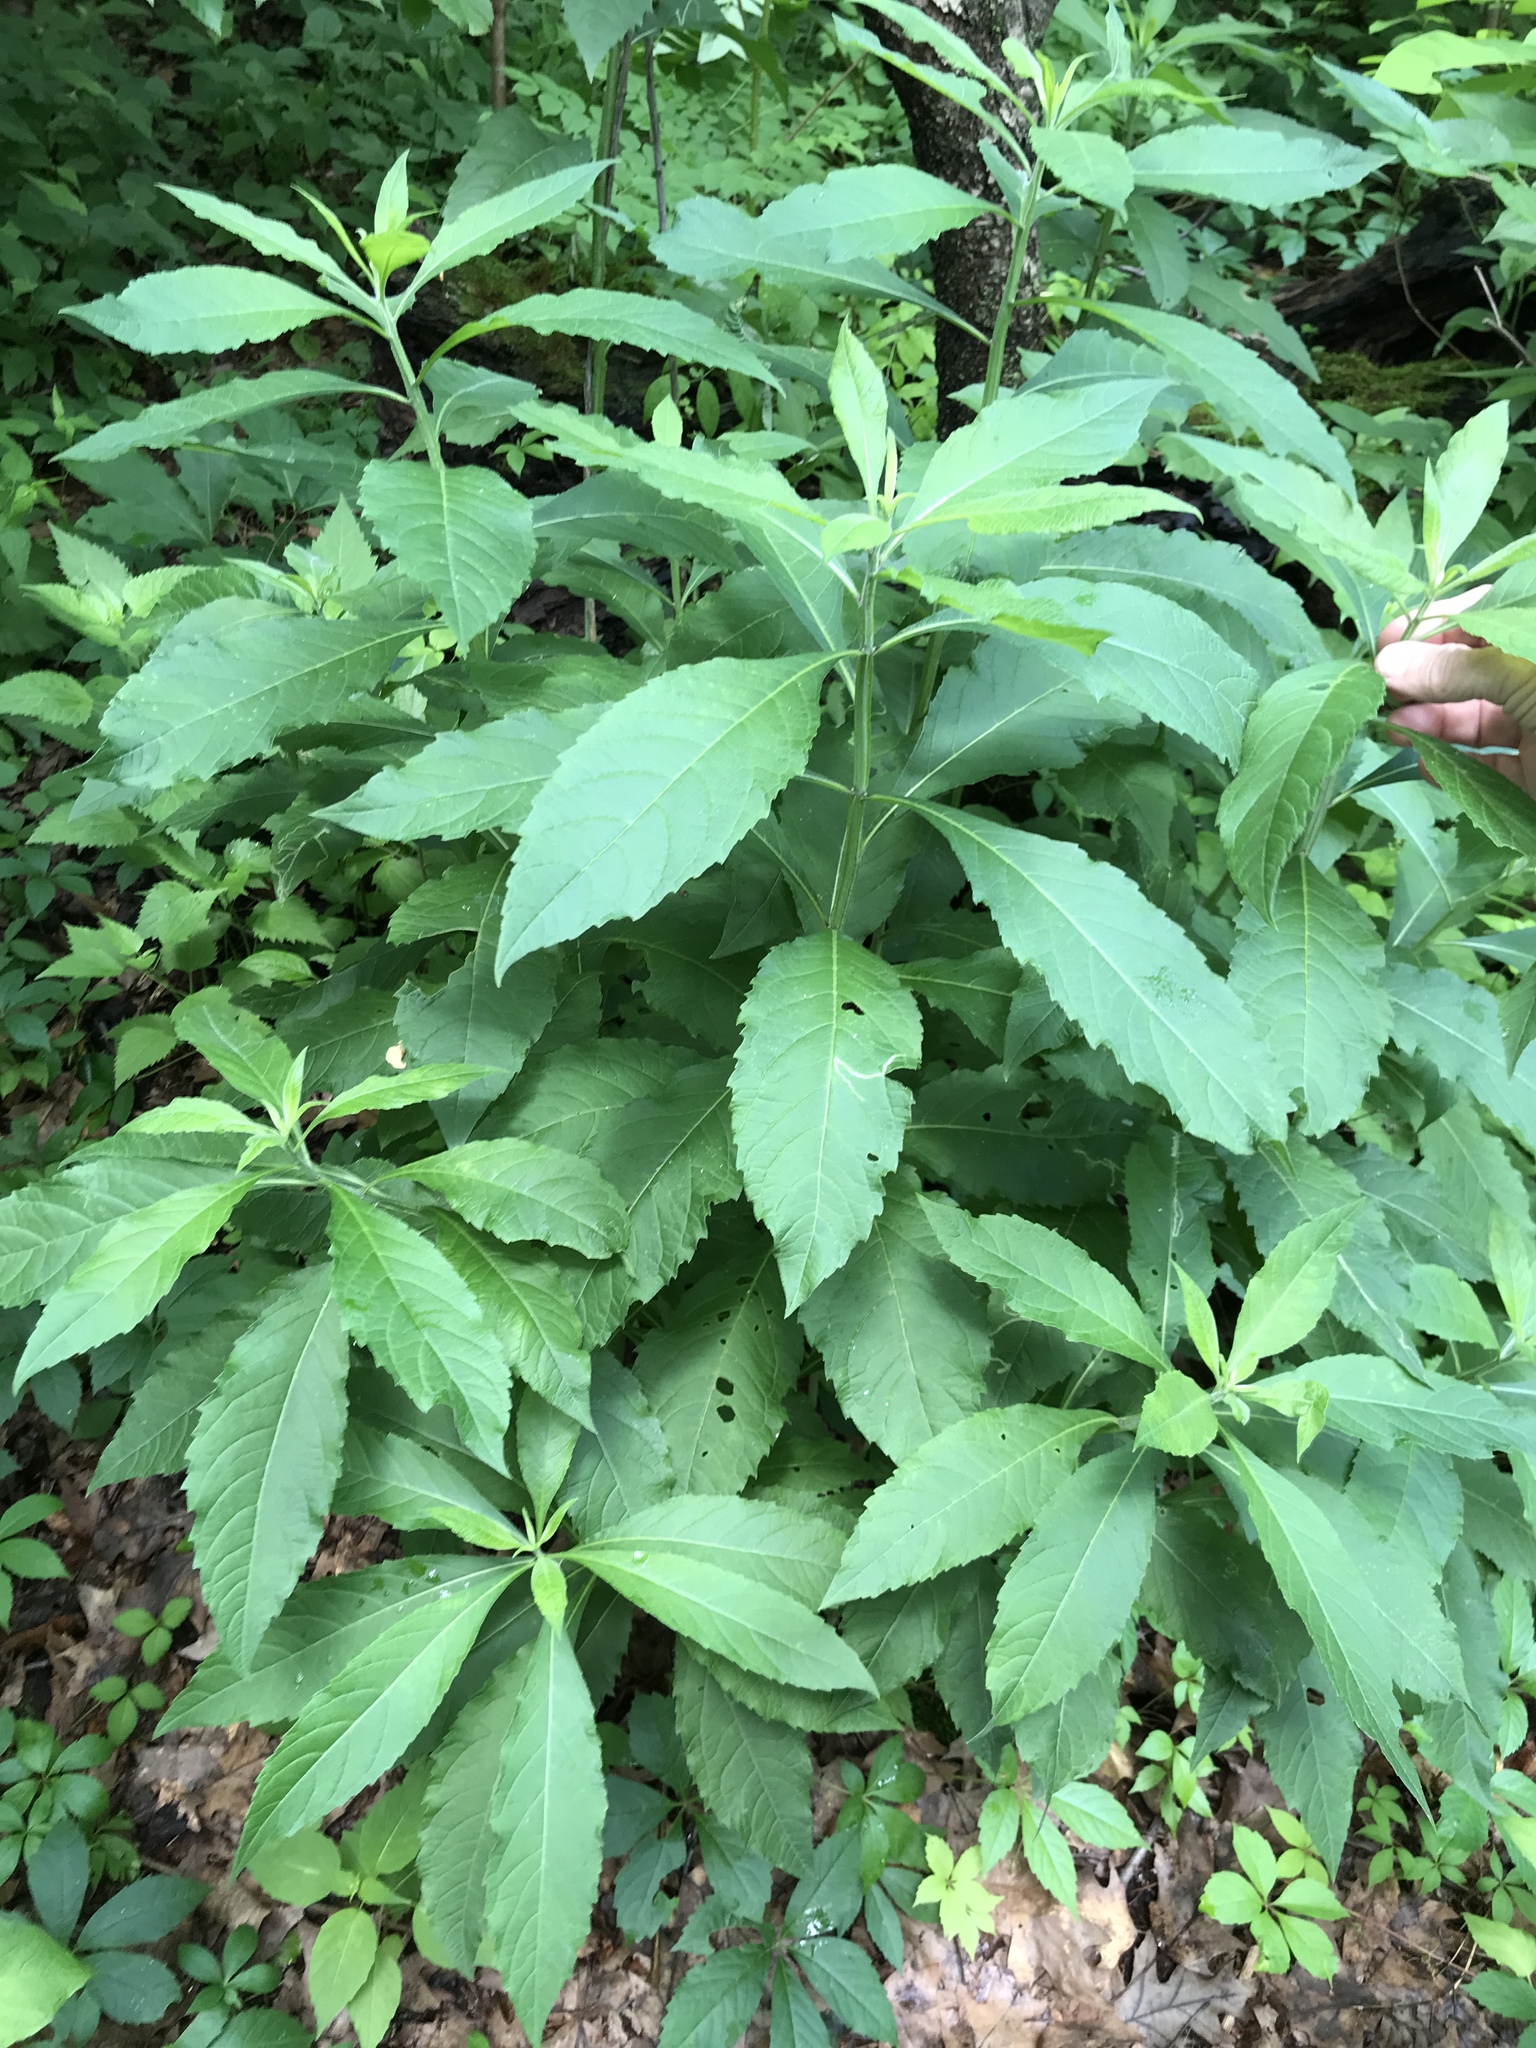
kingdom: Plantae
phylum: Tracheophyta
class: Magnoliopsida
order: Asterales
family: Asteraceae
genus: Verbesina
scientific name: Verbesina alternifolia
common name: Wingstem
